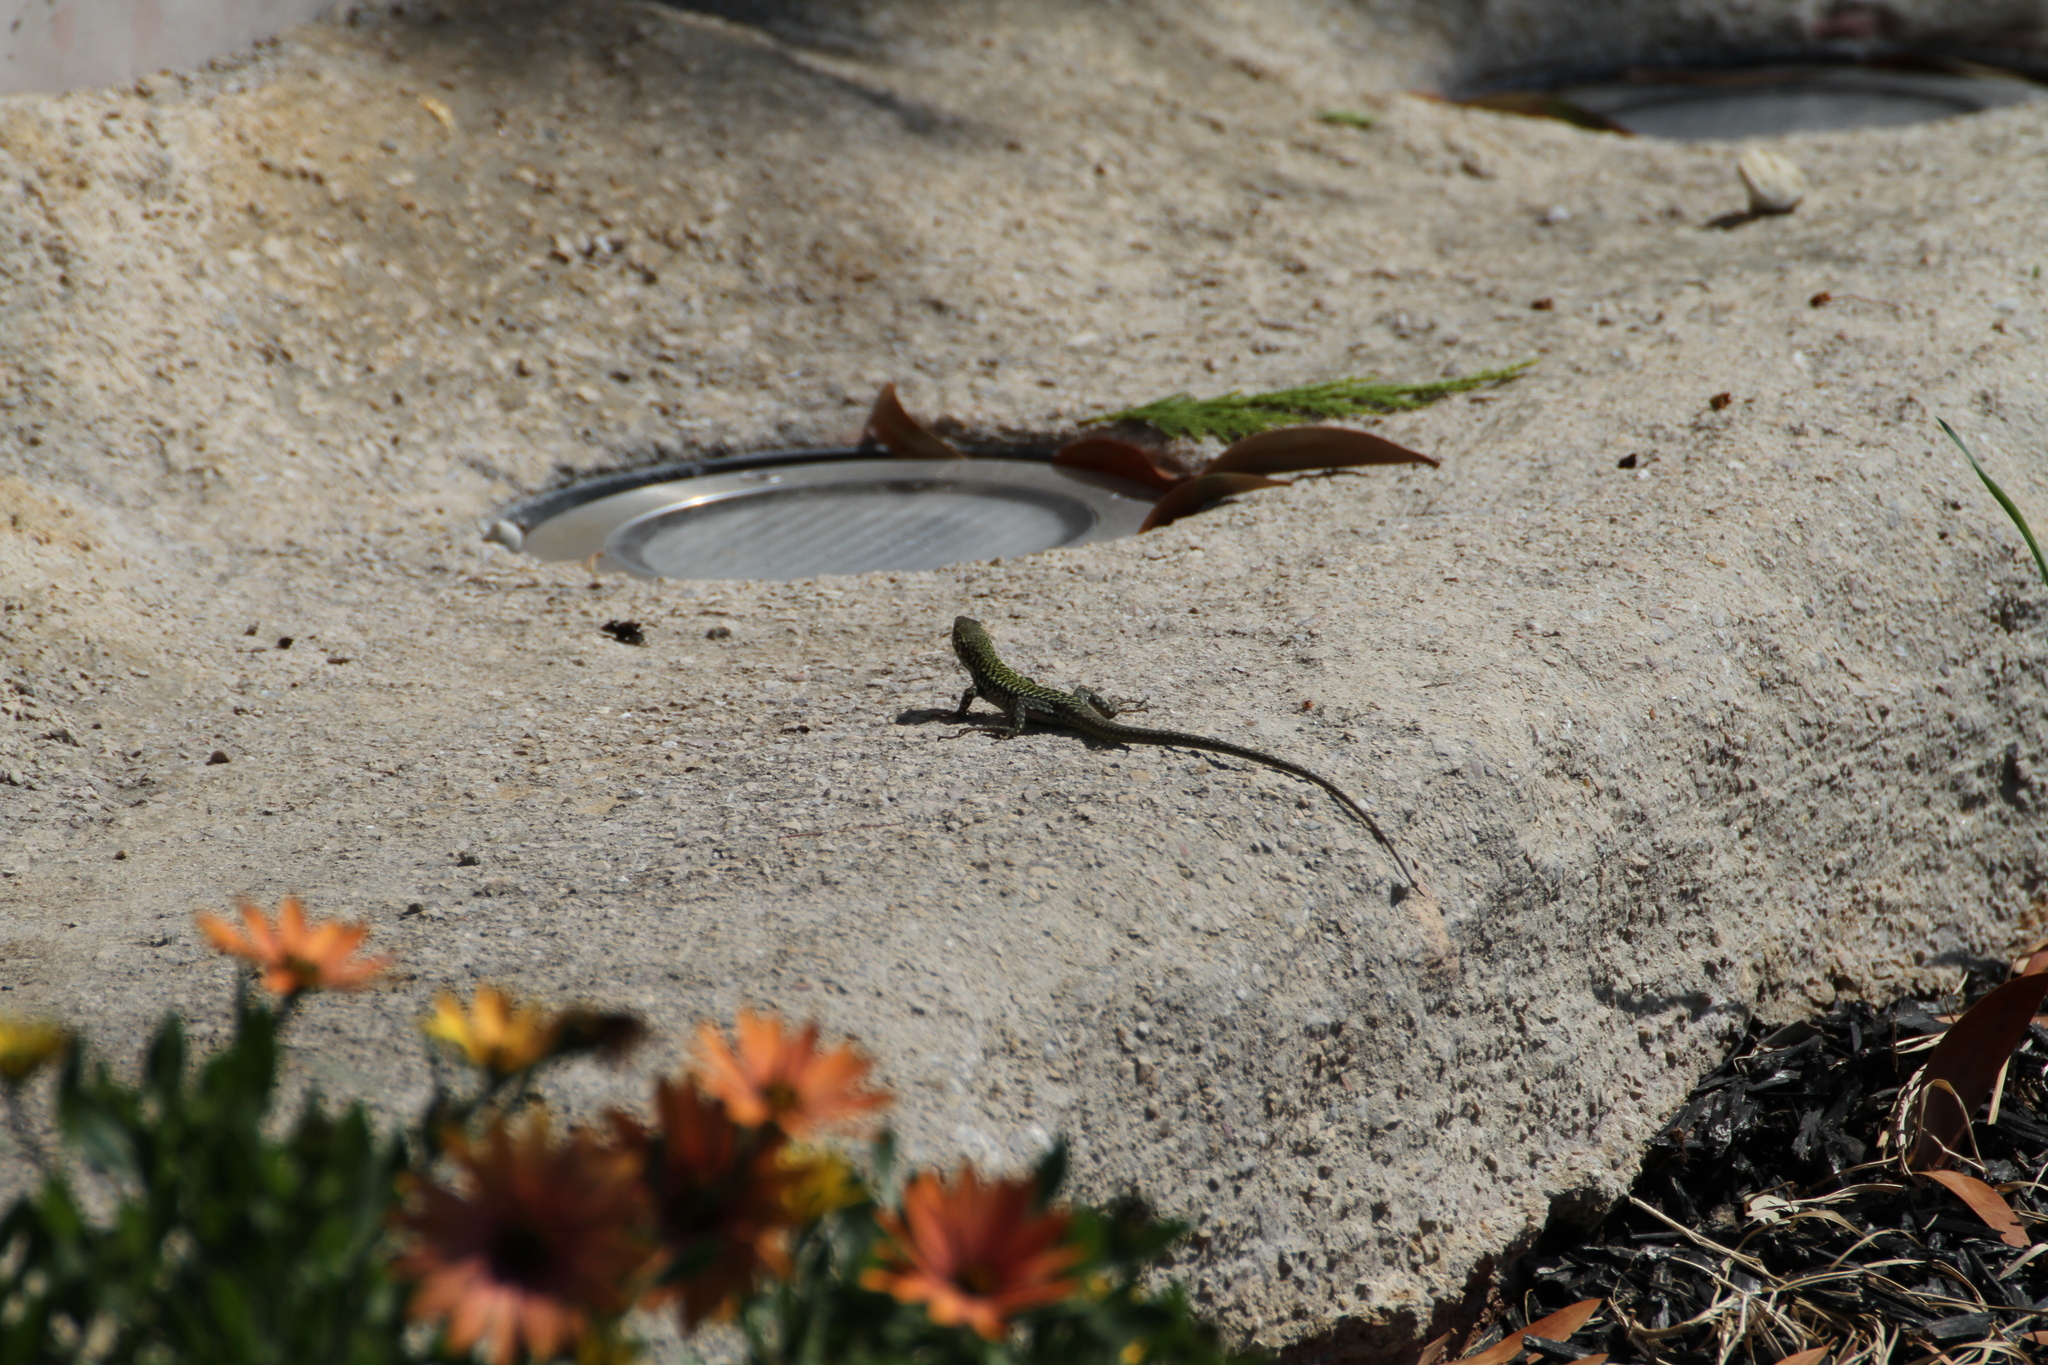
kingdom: Animalia
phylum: Chordata
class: Squamata
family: Lacertidae
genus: Podarcis
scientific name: Podarcis siculus
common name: Italian wall lizard
